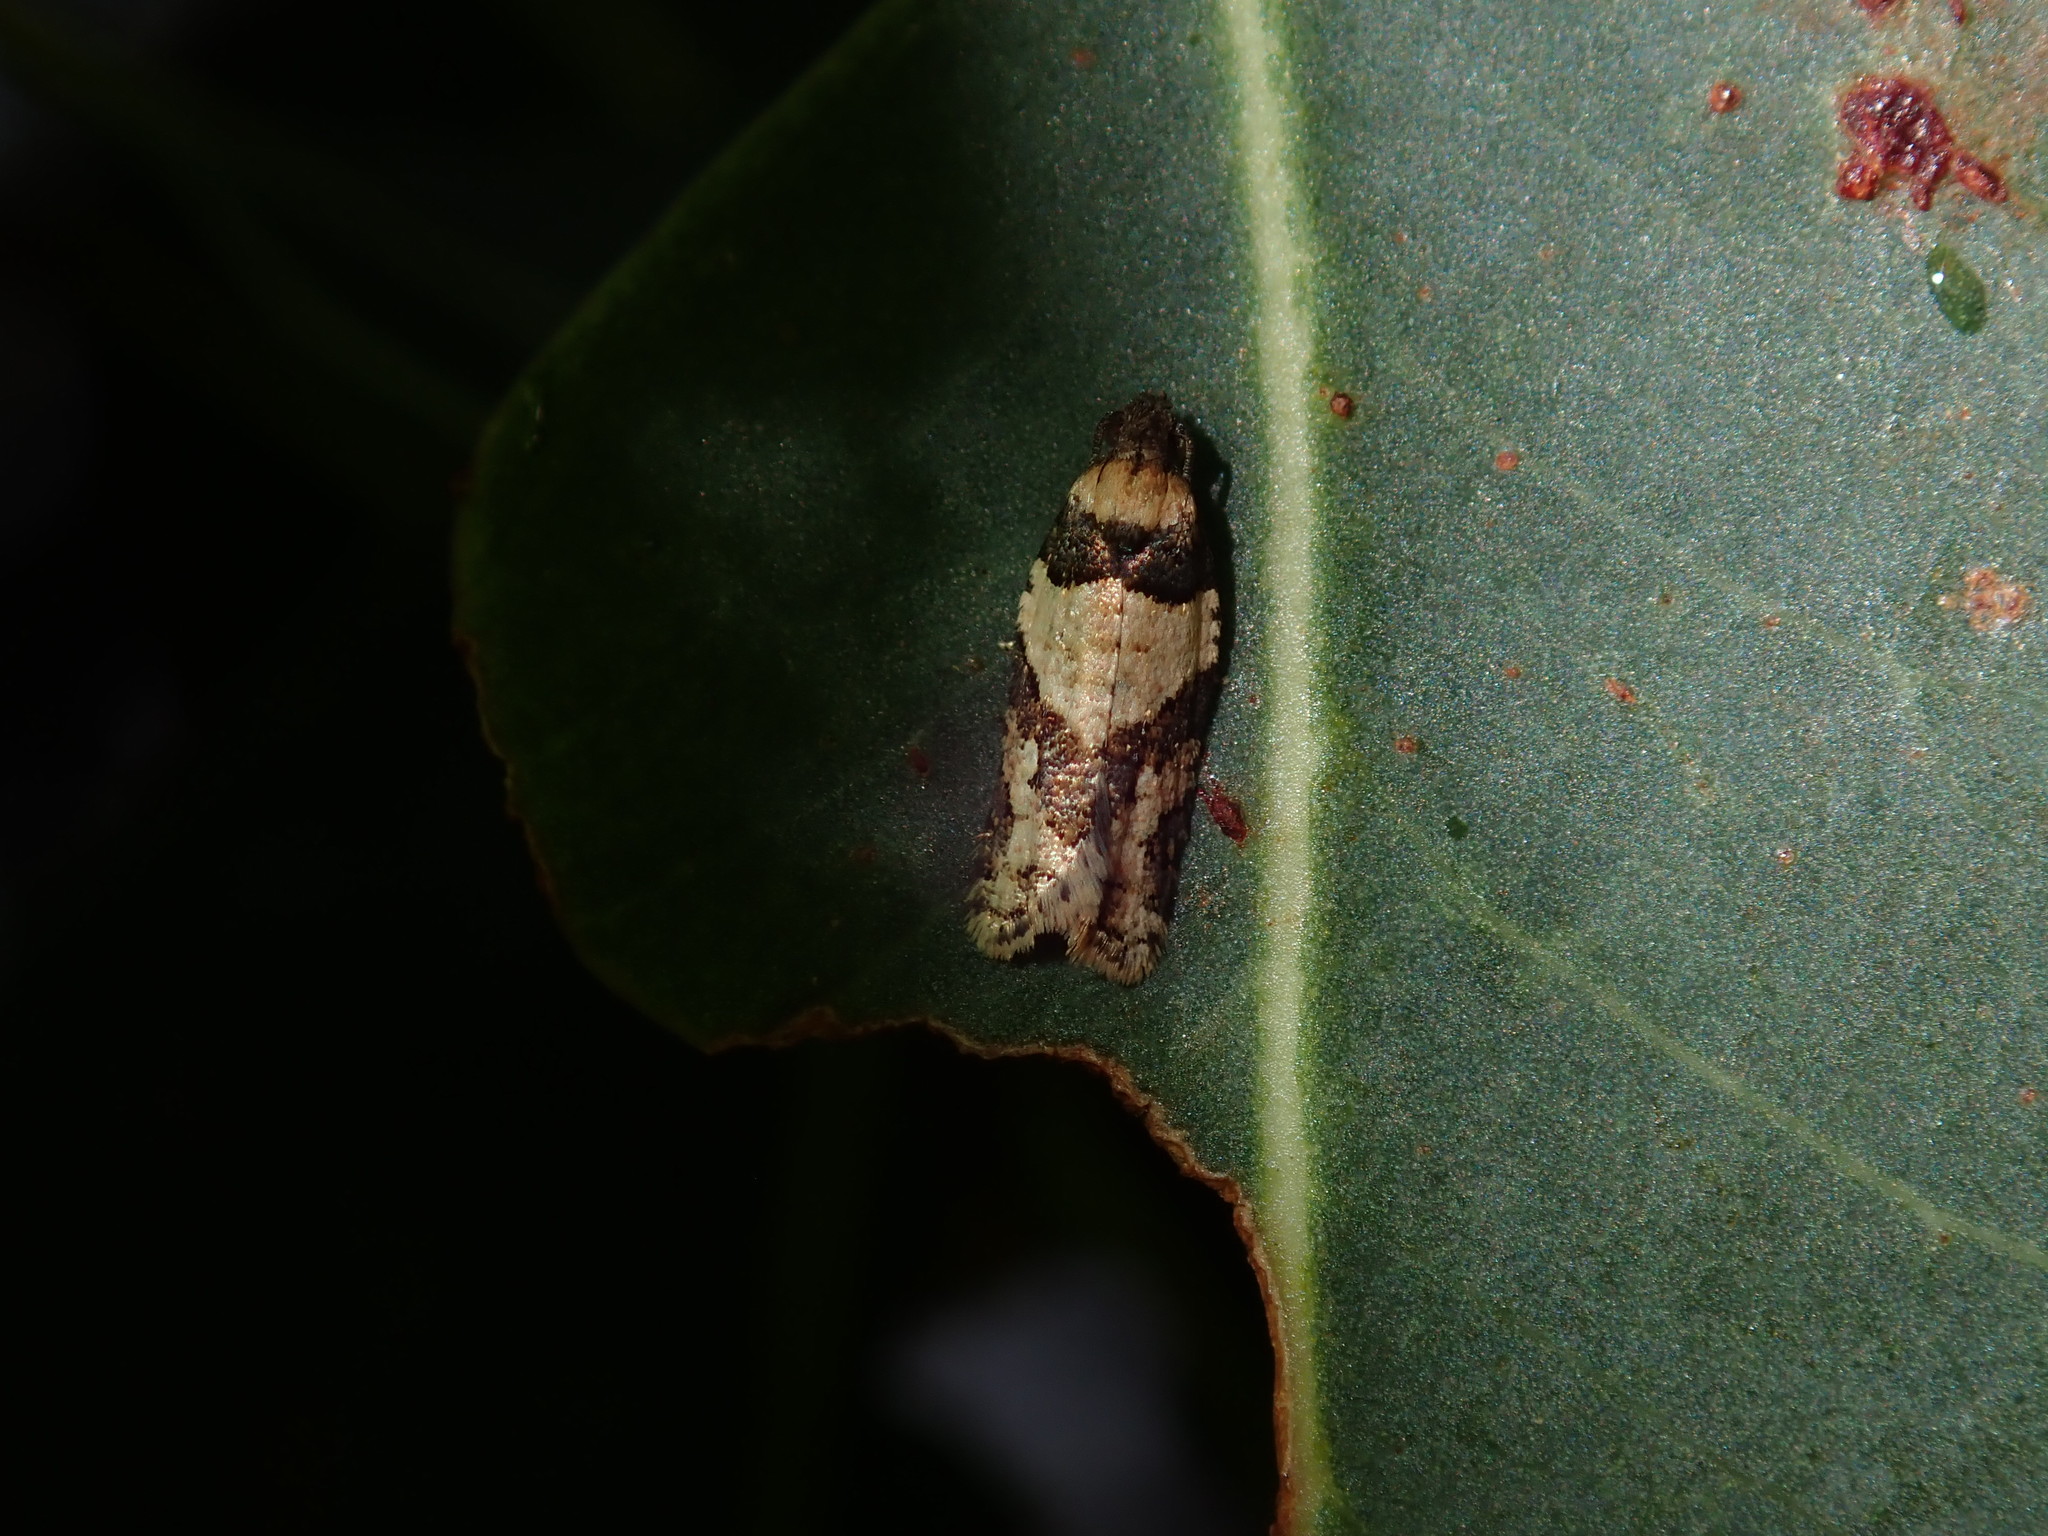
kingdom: Animalia
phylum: Arthropoda
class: Insecta
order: Lepidoptera
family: Tortricidae
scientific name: Tortricidae
